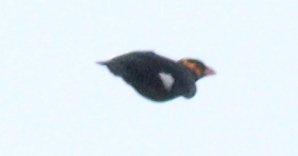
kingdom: Animalia
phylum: Chordata
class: Aves
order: Passeriformes
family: Sturnidae
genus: Gracula
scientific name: Gracula religiosa
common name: Common hill myna
